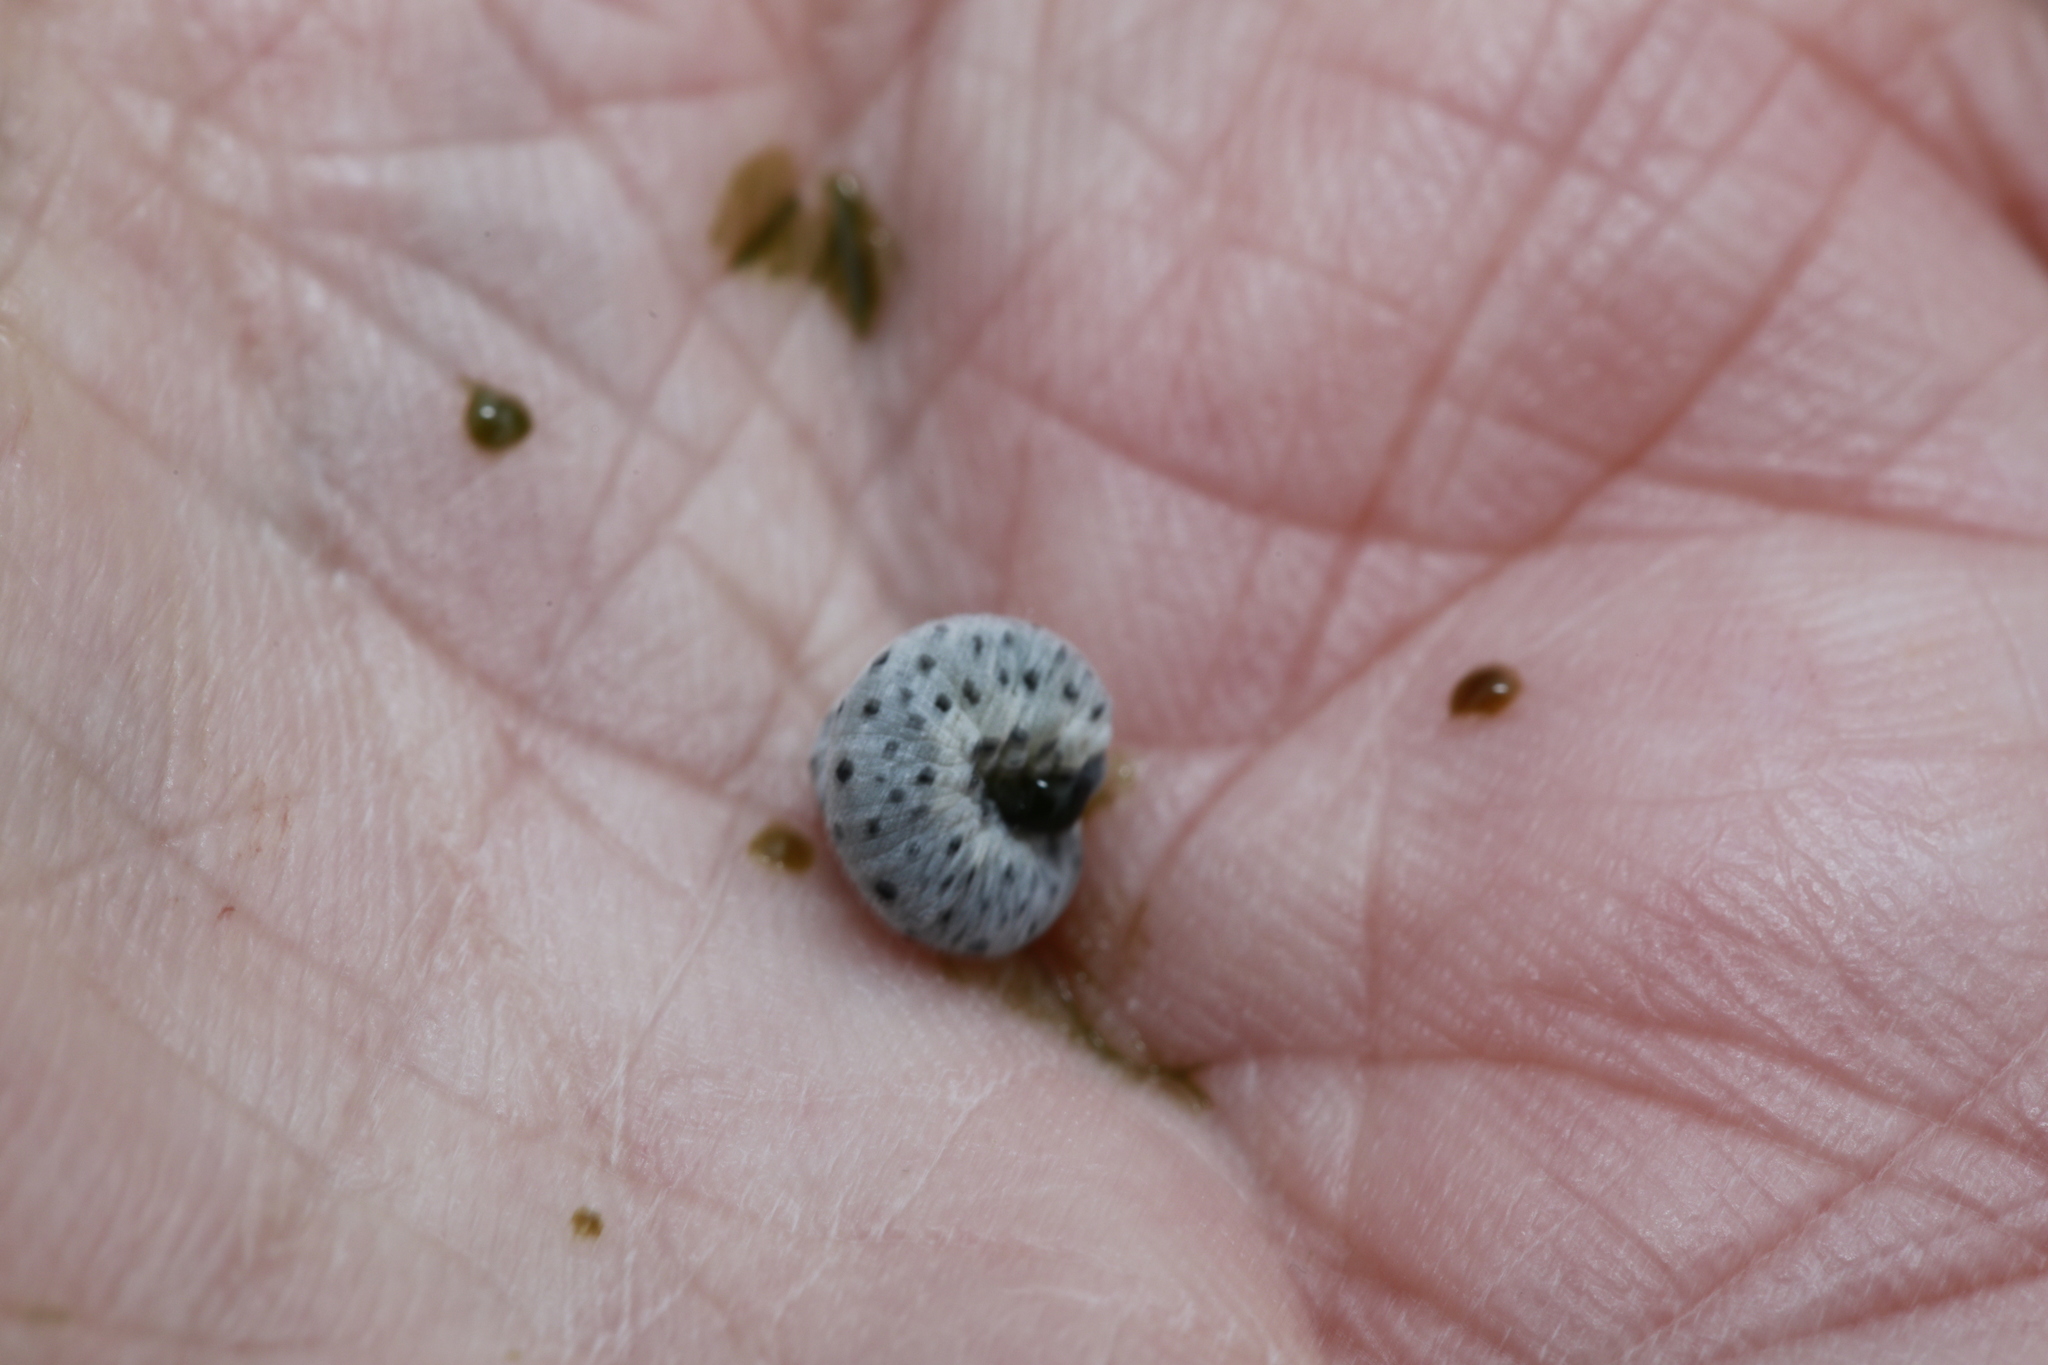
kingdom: Animalia
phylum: Arthropoda
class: Insecta
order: Hymenoptera
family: Tenthredinidae
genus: Tenthredo
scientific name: Tenthredo scrophulariae
